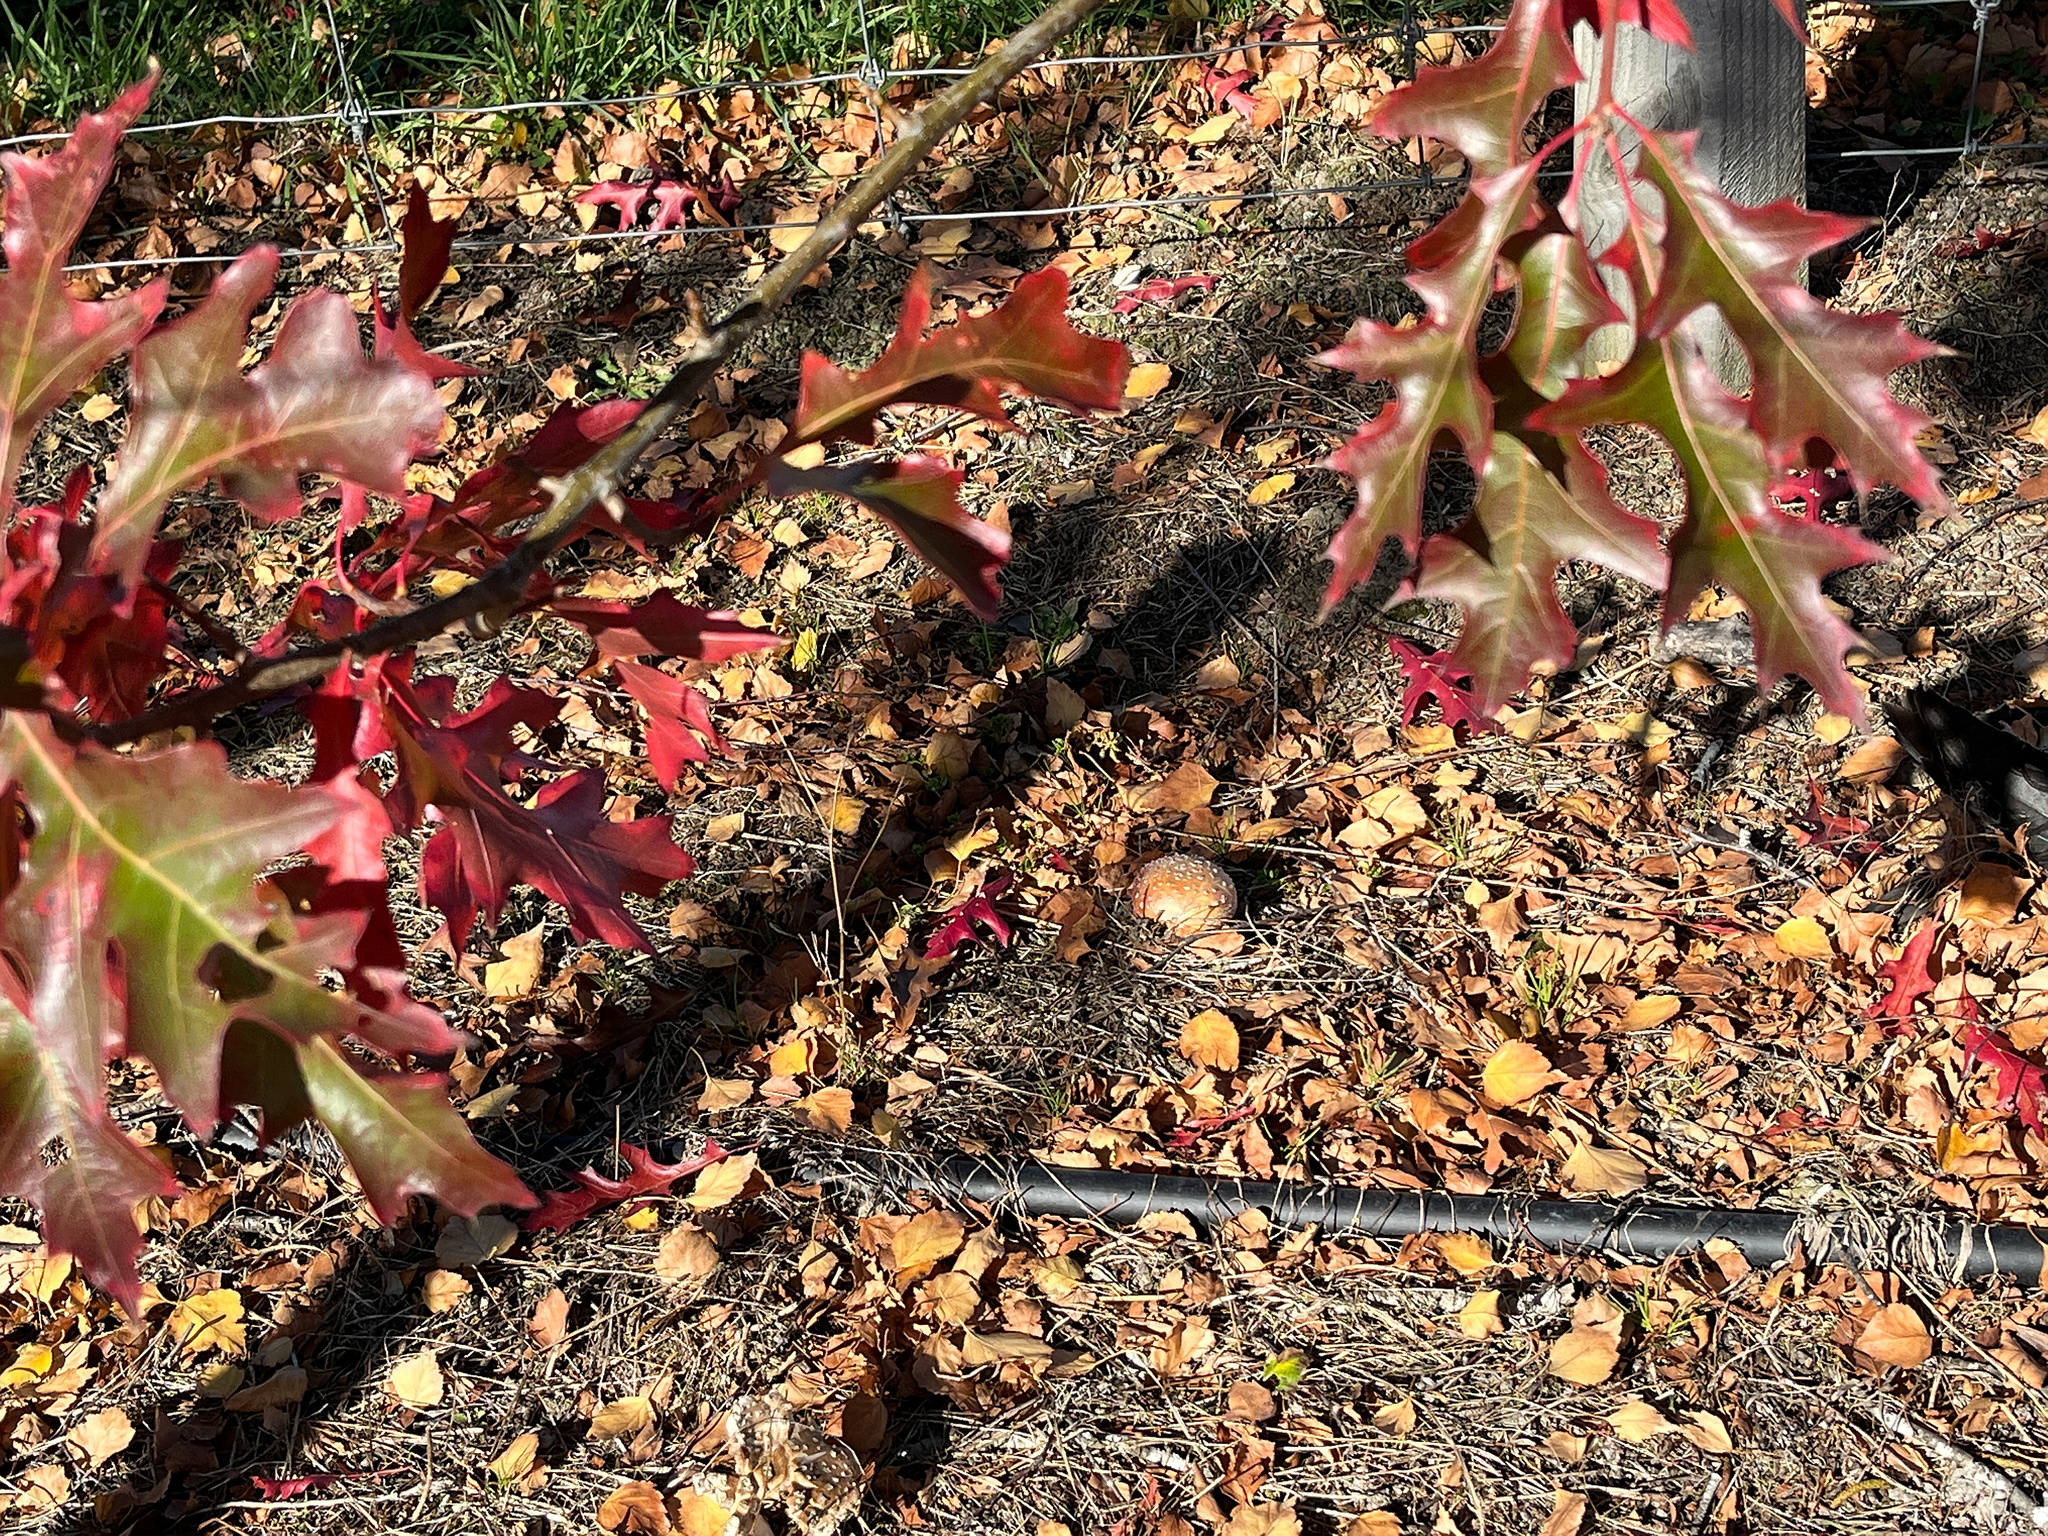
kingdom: Fungi
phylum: Basidiomycota
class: Agaricomycetes
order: Agaricales
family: Amanitaceae
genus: Amanita
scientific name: Amanita muscaria
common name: Fly agaric
